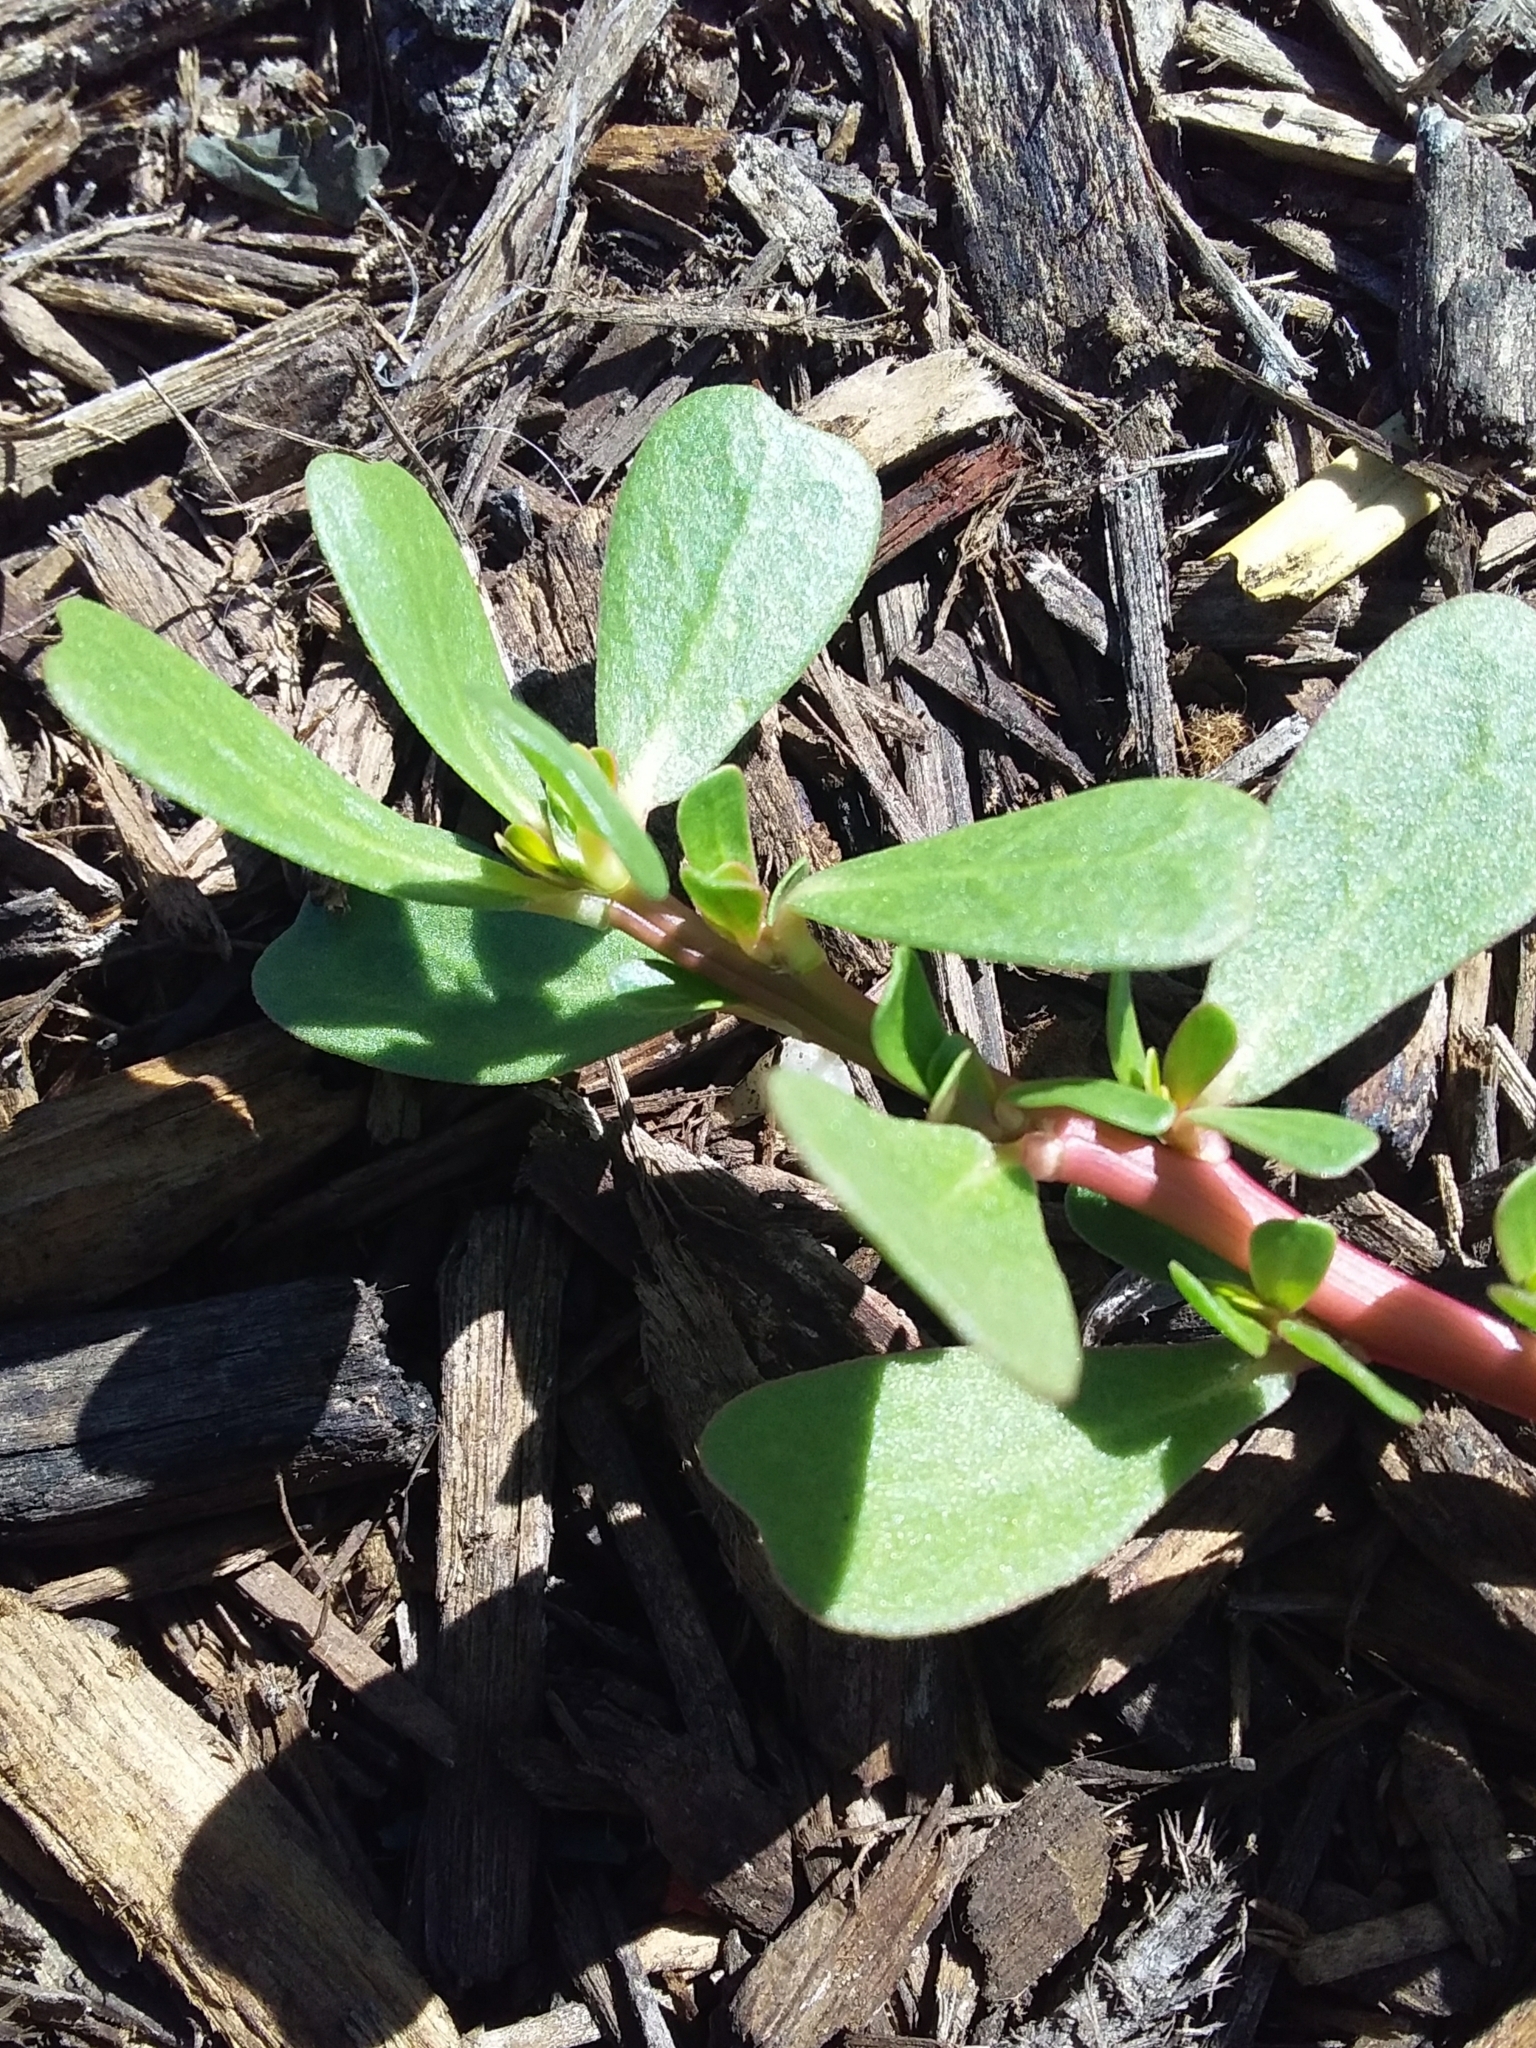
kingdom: Plantae
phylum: Tracheophyta
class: Magnoliopsida
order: Caryophyllales
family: Portulacaceae
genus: Portulaca
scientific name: Portulaca oleracea
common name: Common purslane
